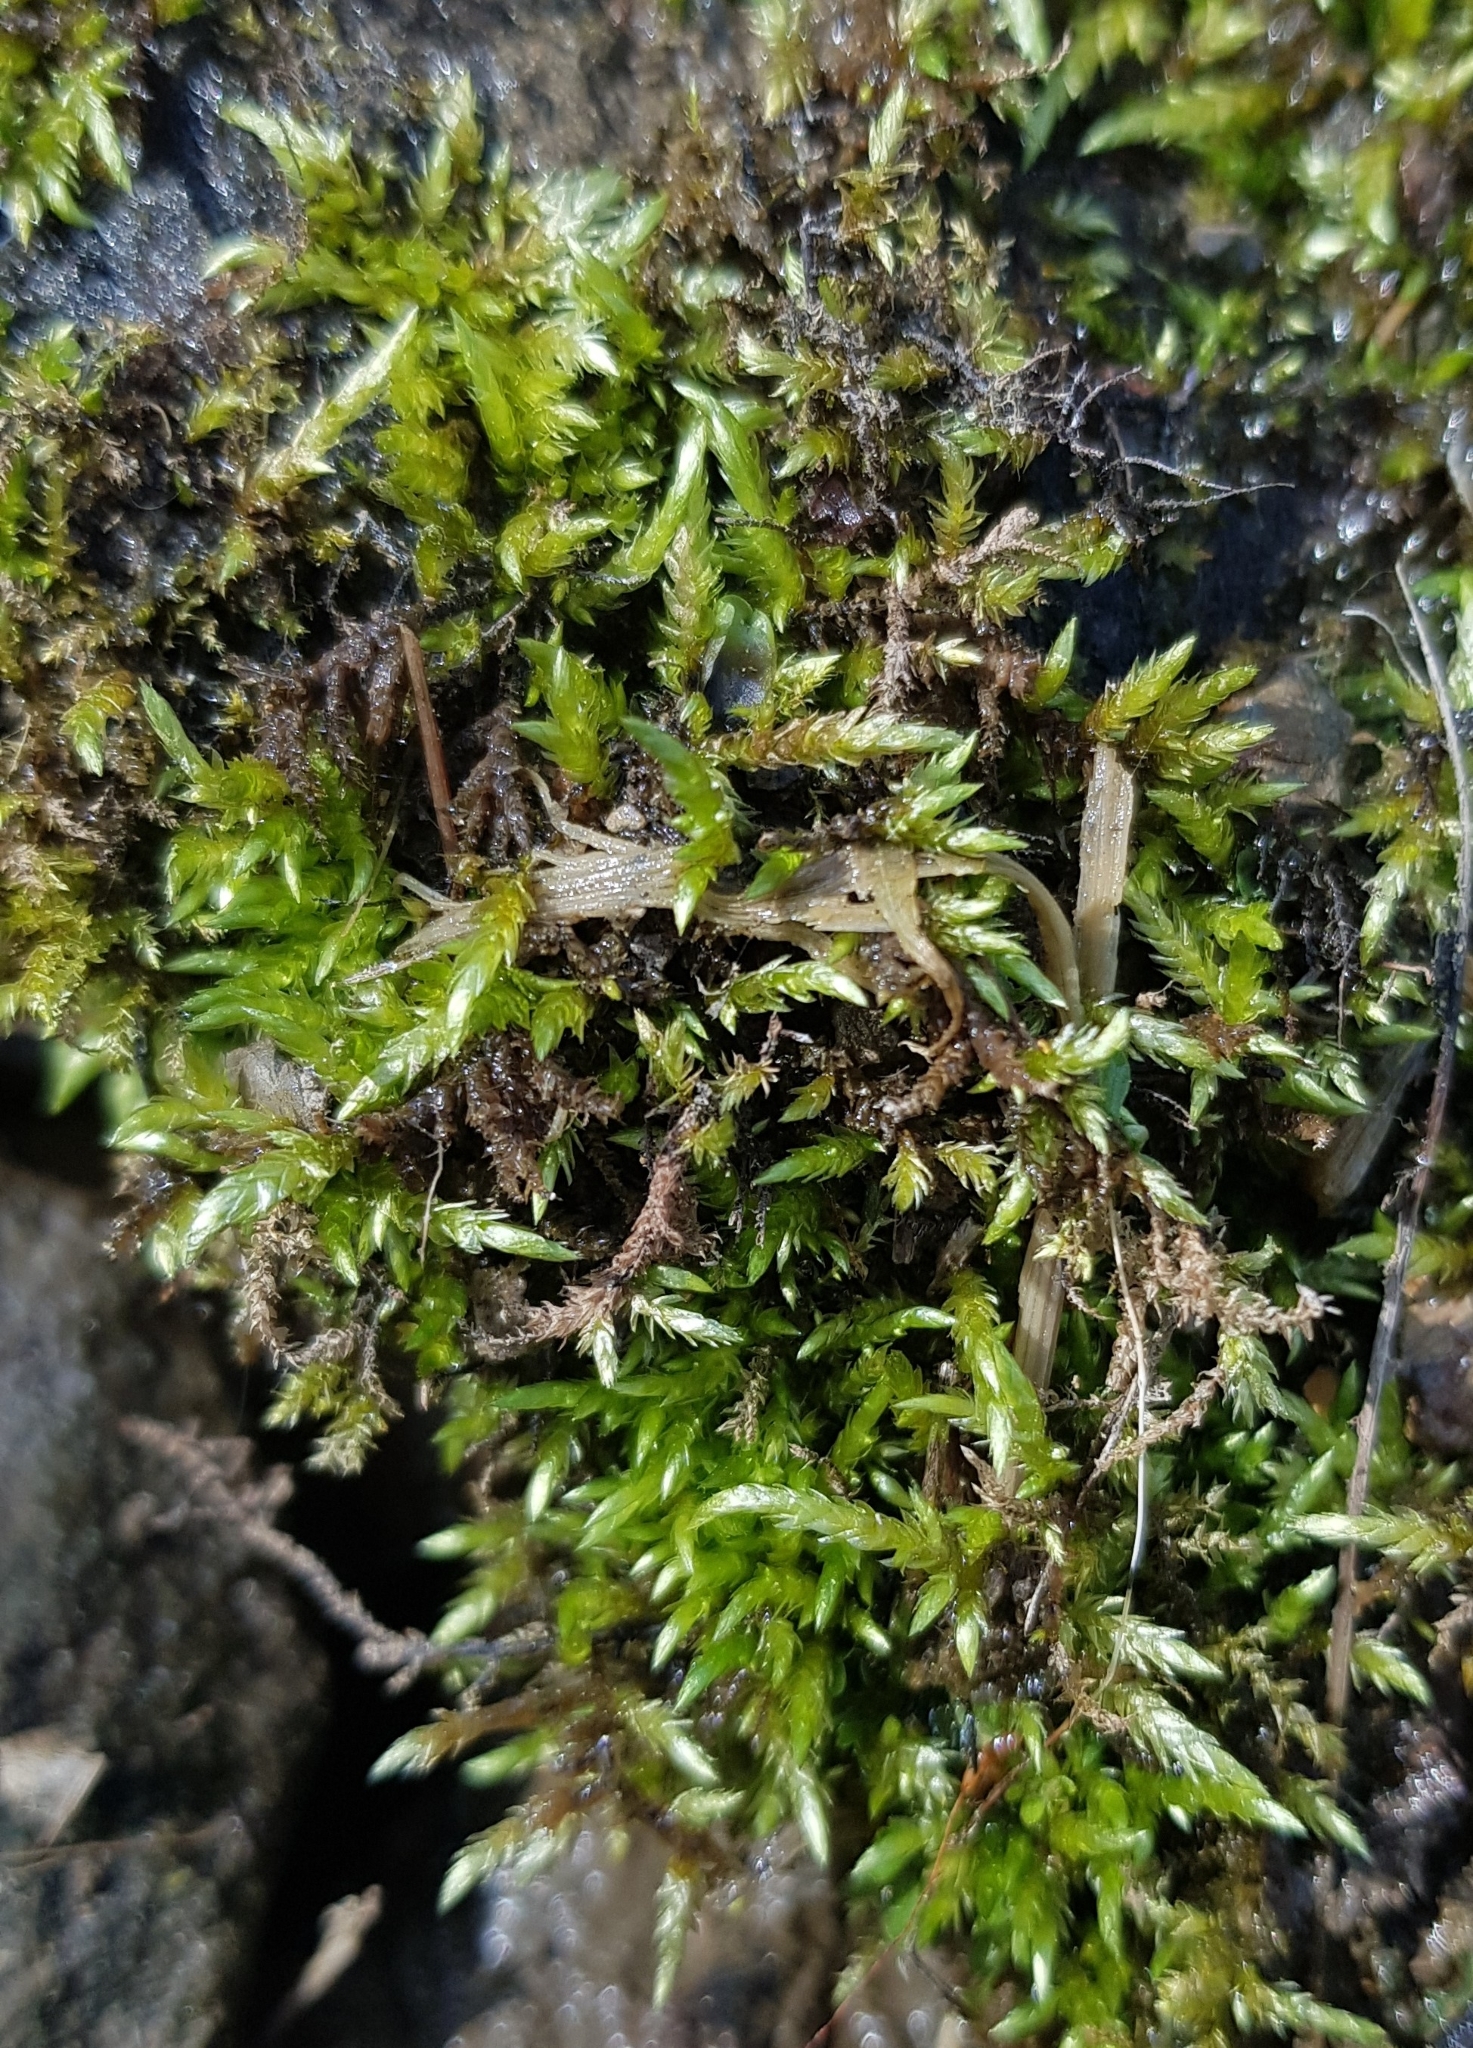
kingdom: Plantae
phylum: Bryophyta
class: Bryopsida
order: Hypnales
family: Brachytheciaceae
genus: Brachythecium
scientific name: Brachythecium rivulare
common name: River ragged moss
